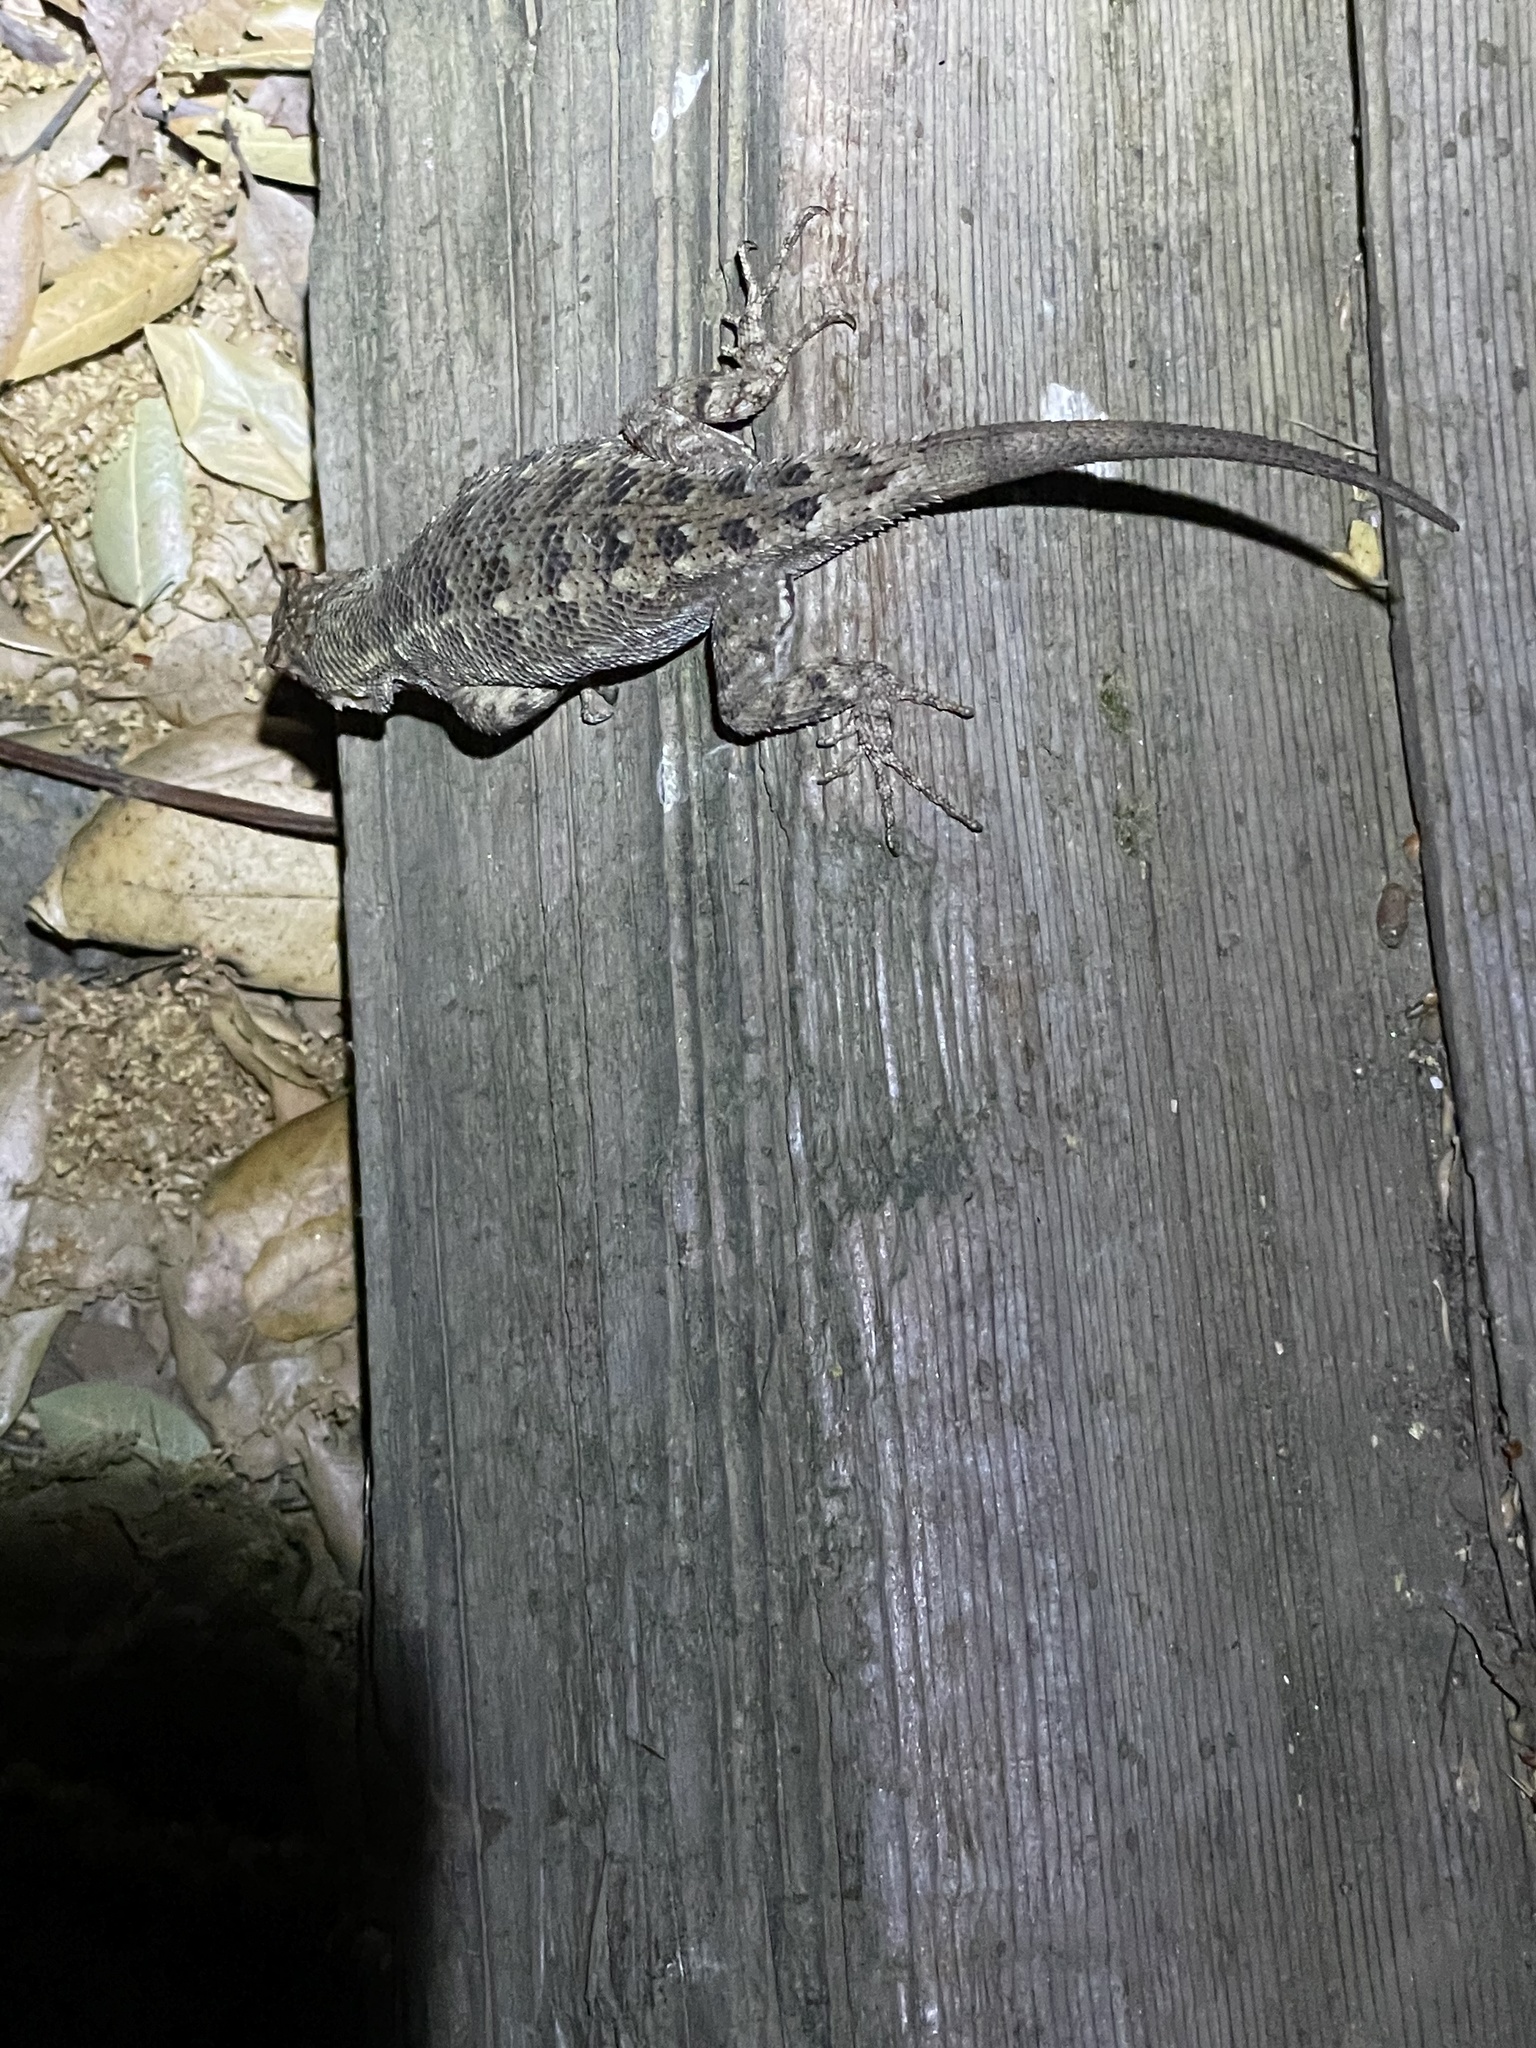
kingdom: Animalia
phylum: Chordata
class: Squamata
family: Phrynosomatidae
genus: Sceloporus
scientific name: Sceloporus occidentalis
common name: Western fence lizard
